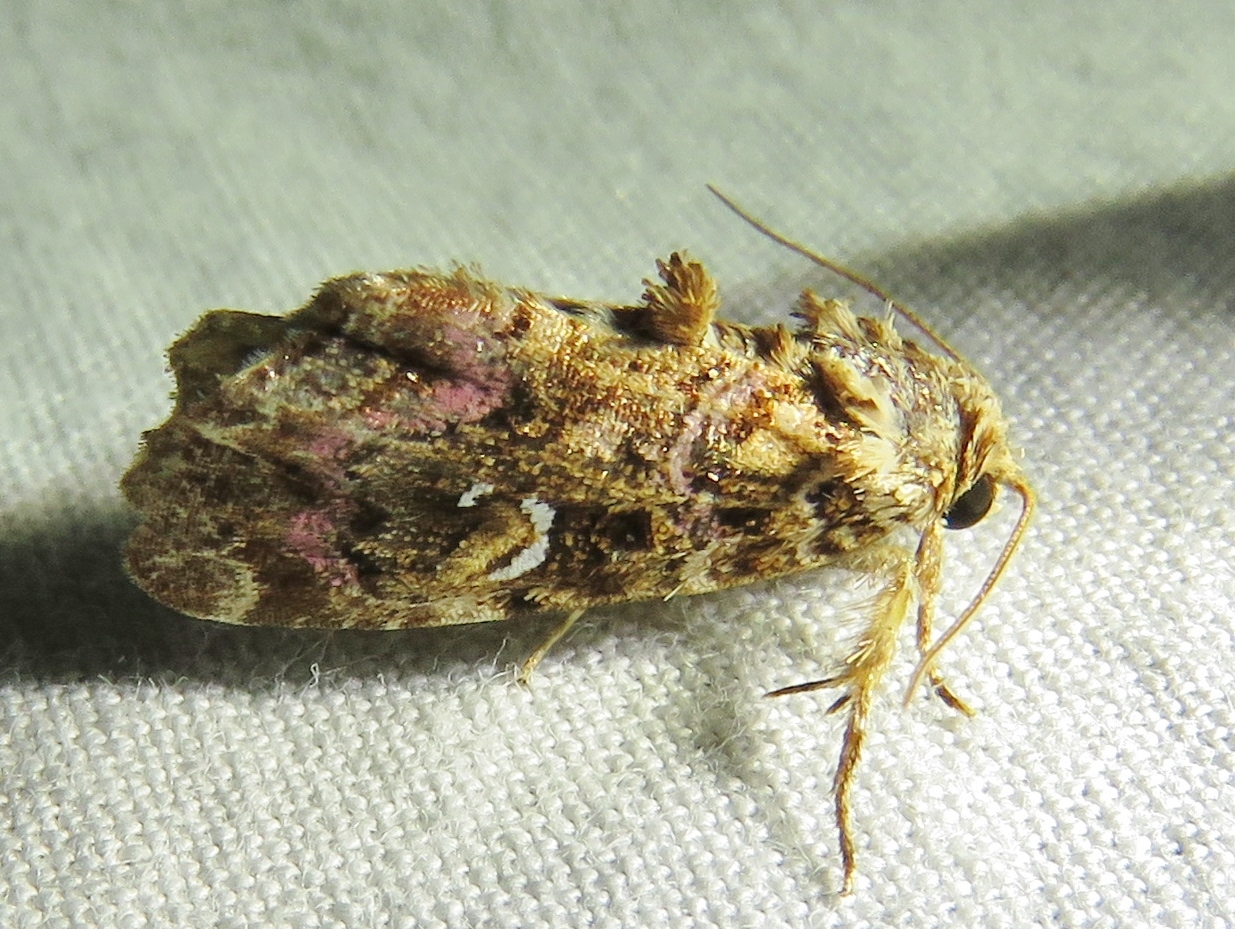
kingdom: Animalia
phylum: Arthropoda
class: Insecta
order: Lepidoptera
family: Noctuidae
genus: Callopistria
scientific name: Callopistria mollissima
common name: Pink-shaded fern moth
